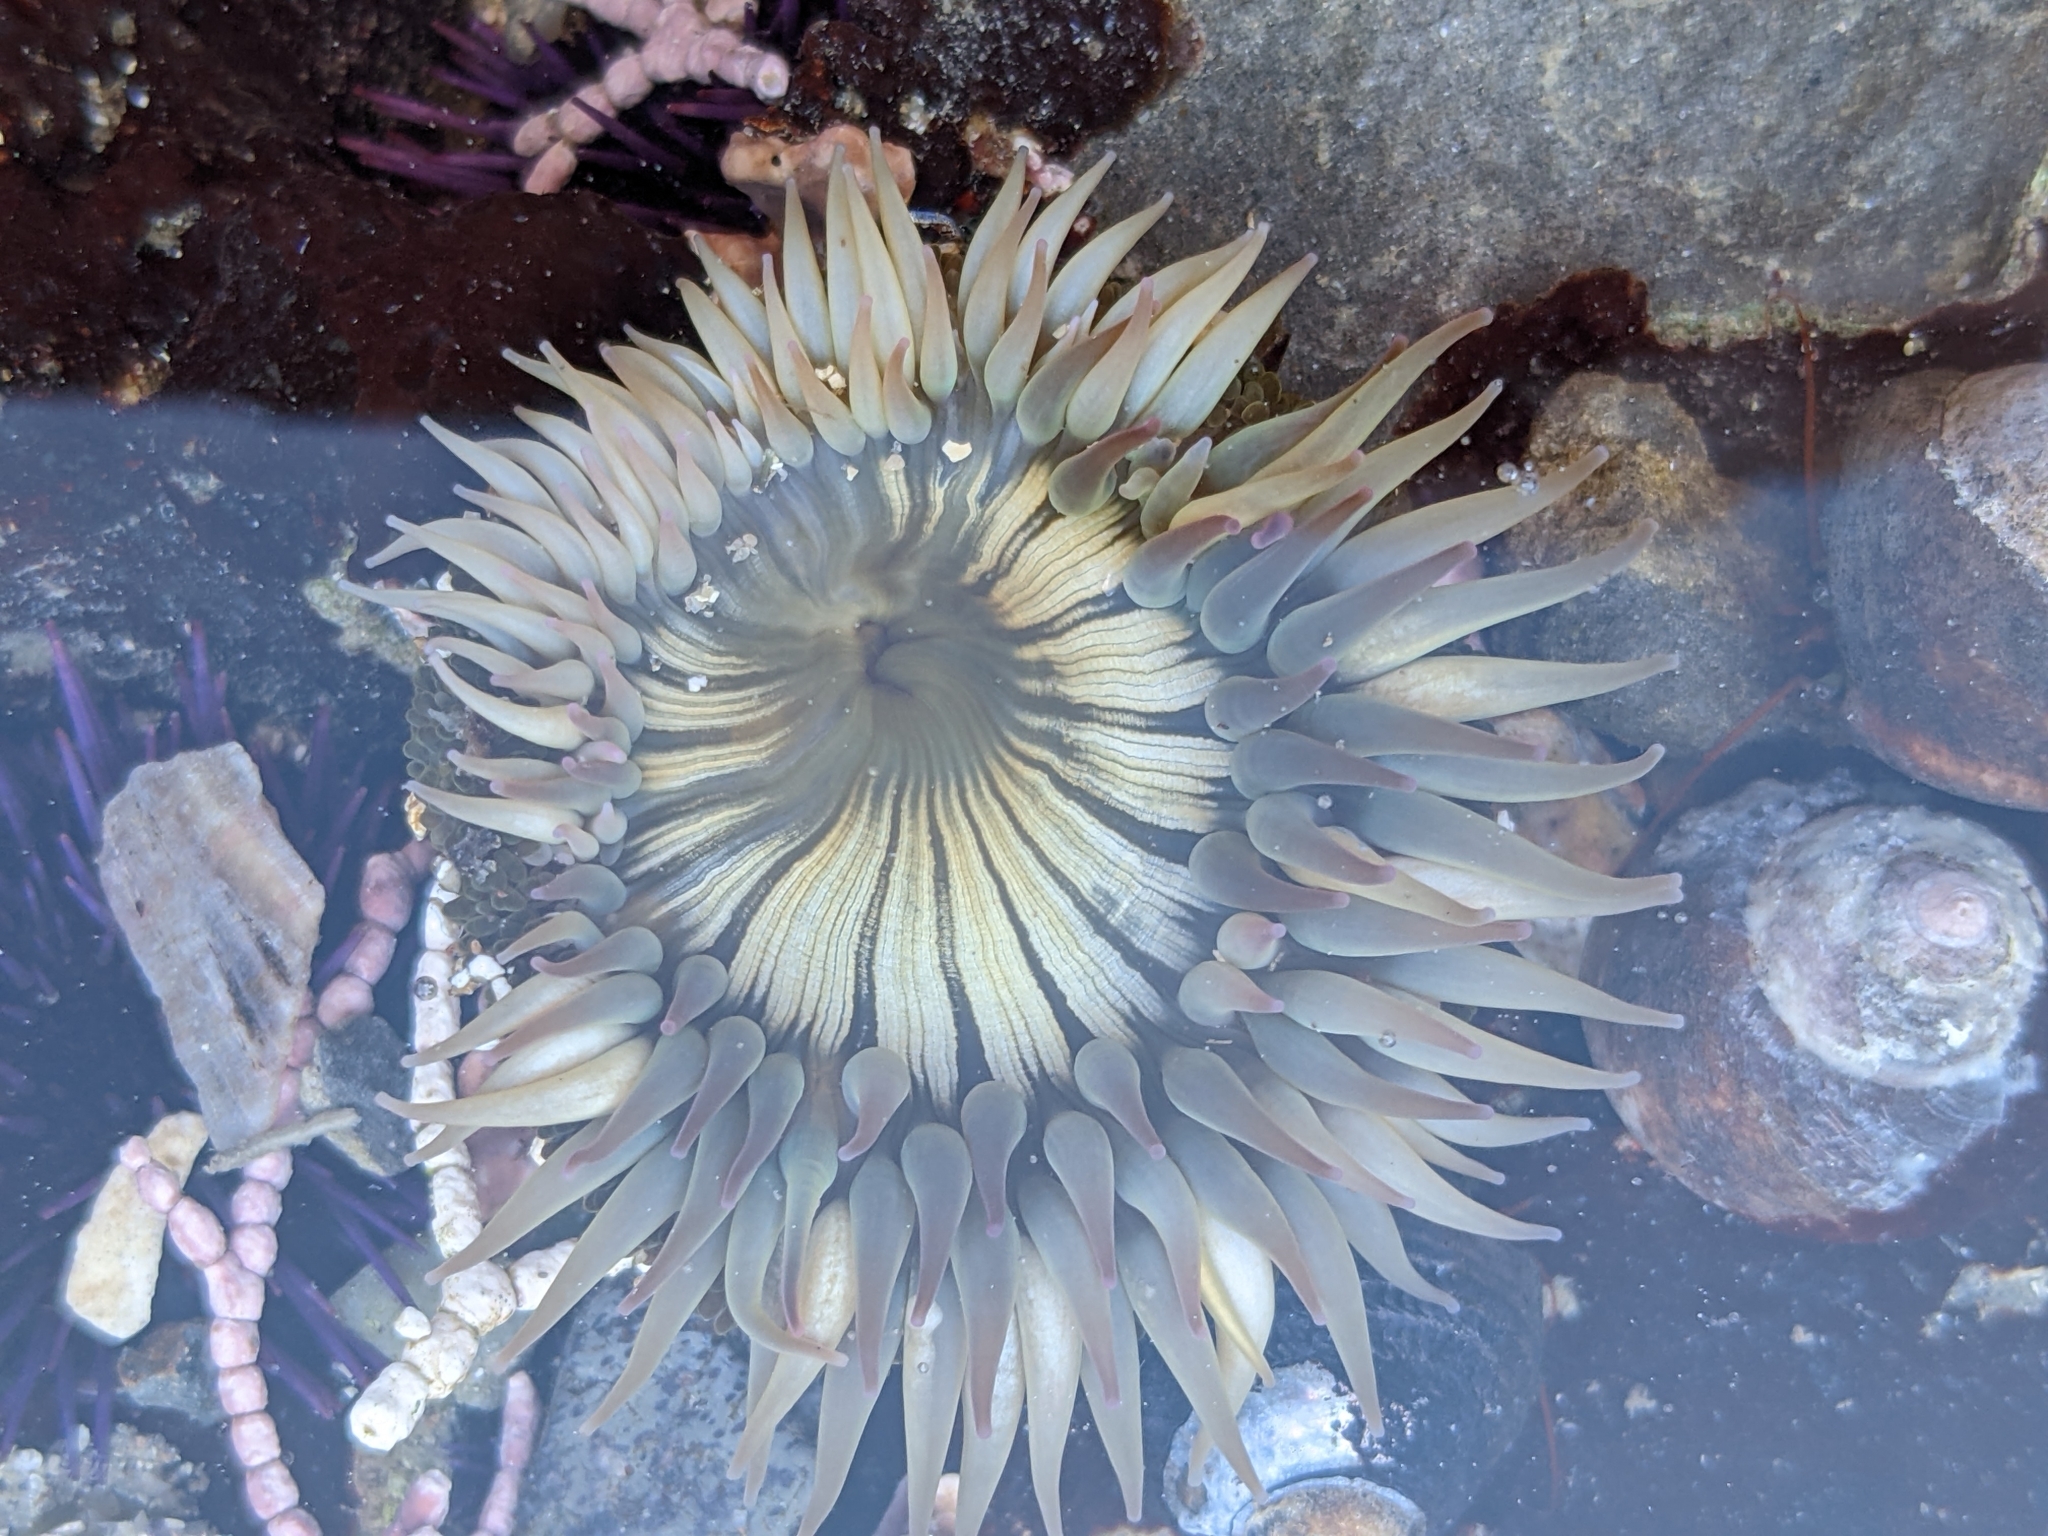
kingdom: Animalia
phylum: Cnidaria
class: Anthozoa
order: Actiniaria
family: Actiniidae
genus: Anthopleura
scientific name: Anthopleura sola
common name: Sun anemone
